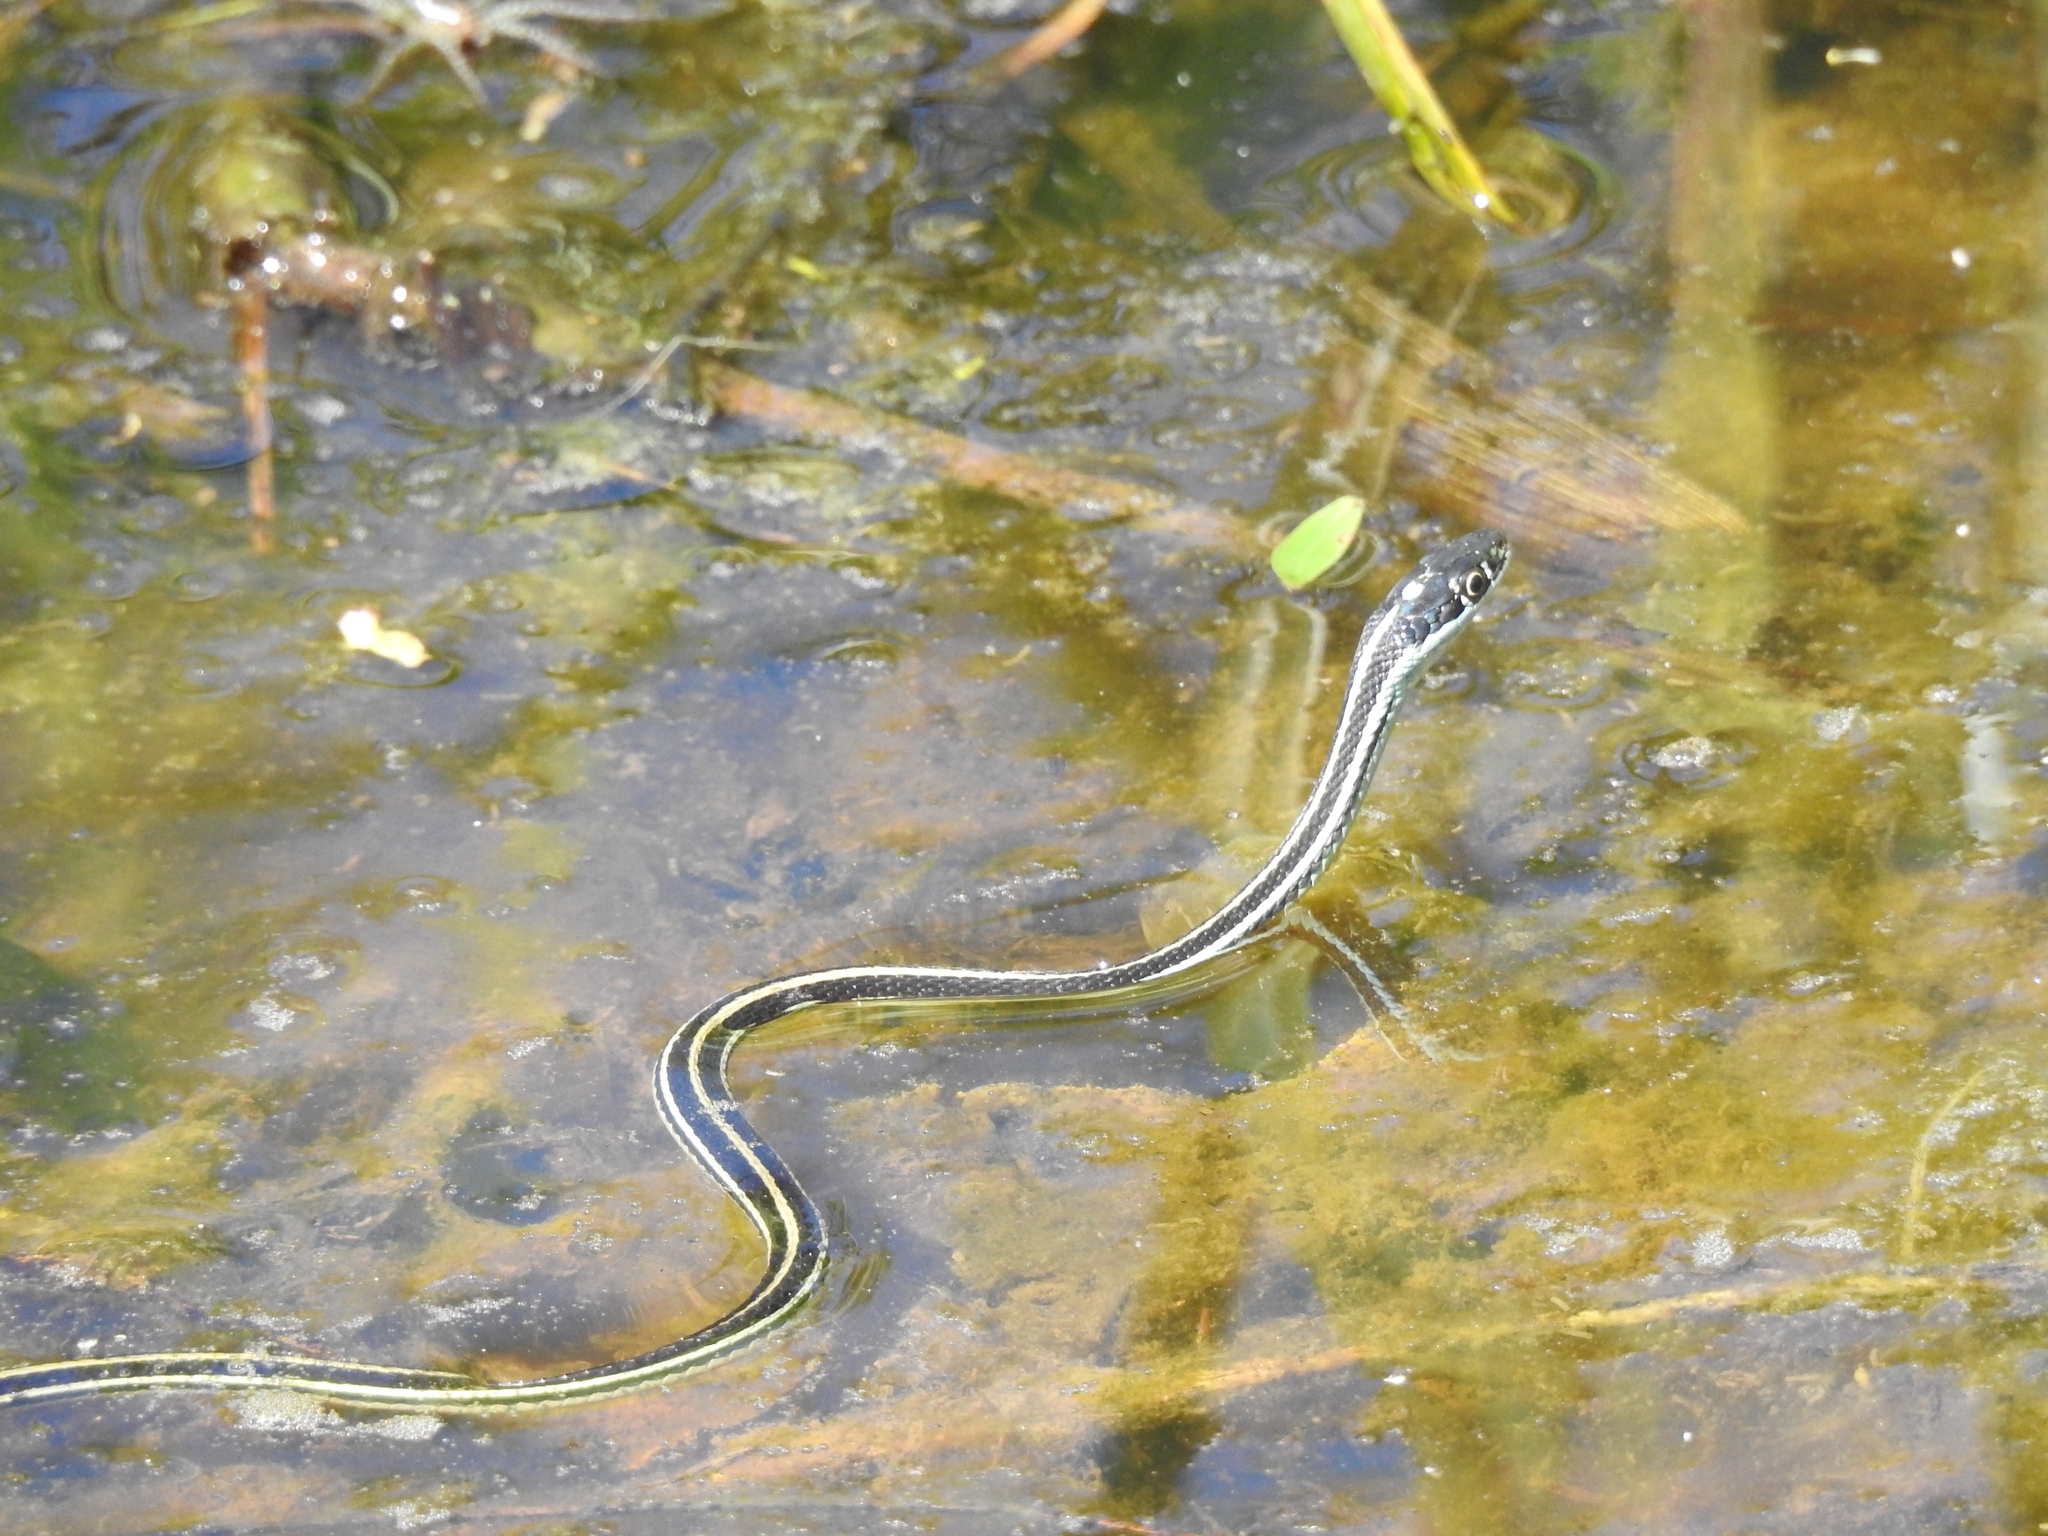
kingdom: Animalia
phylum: Chordata
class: Squamata
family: Colubridae
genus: Thamnophis
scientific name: Thamnophis proximus
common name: Western ribbon snake
